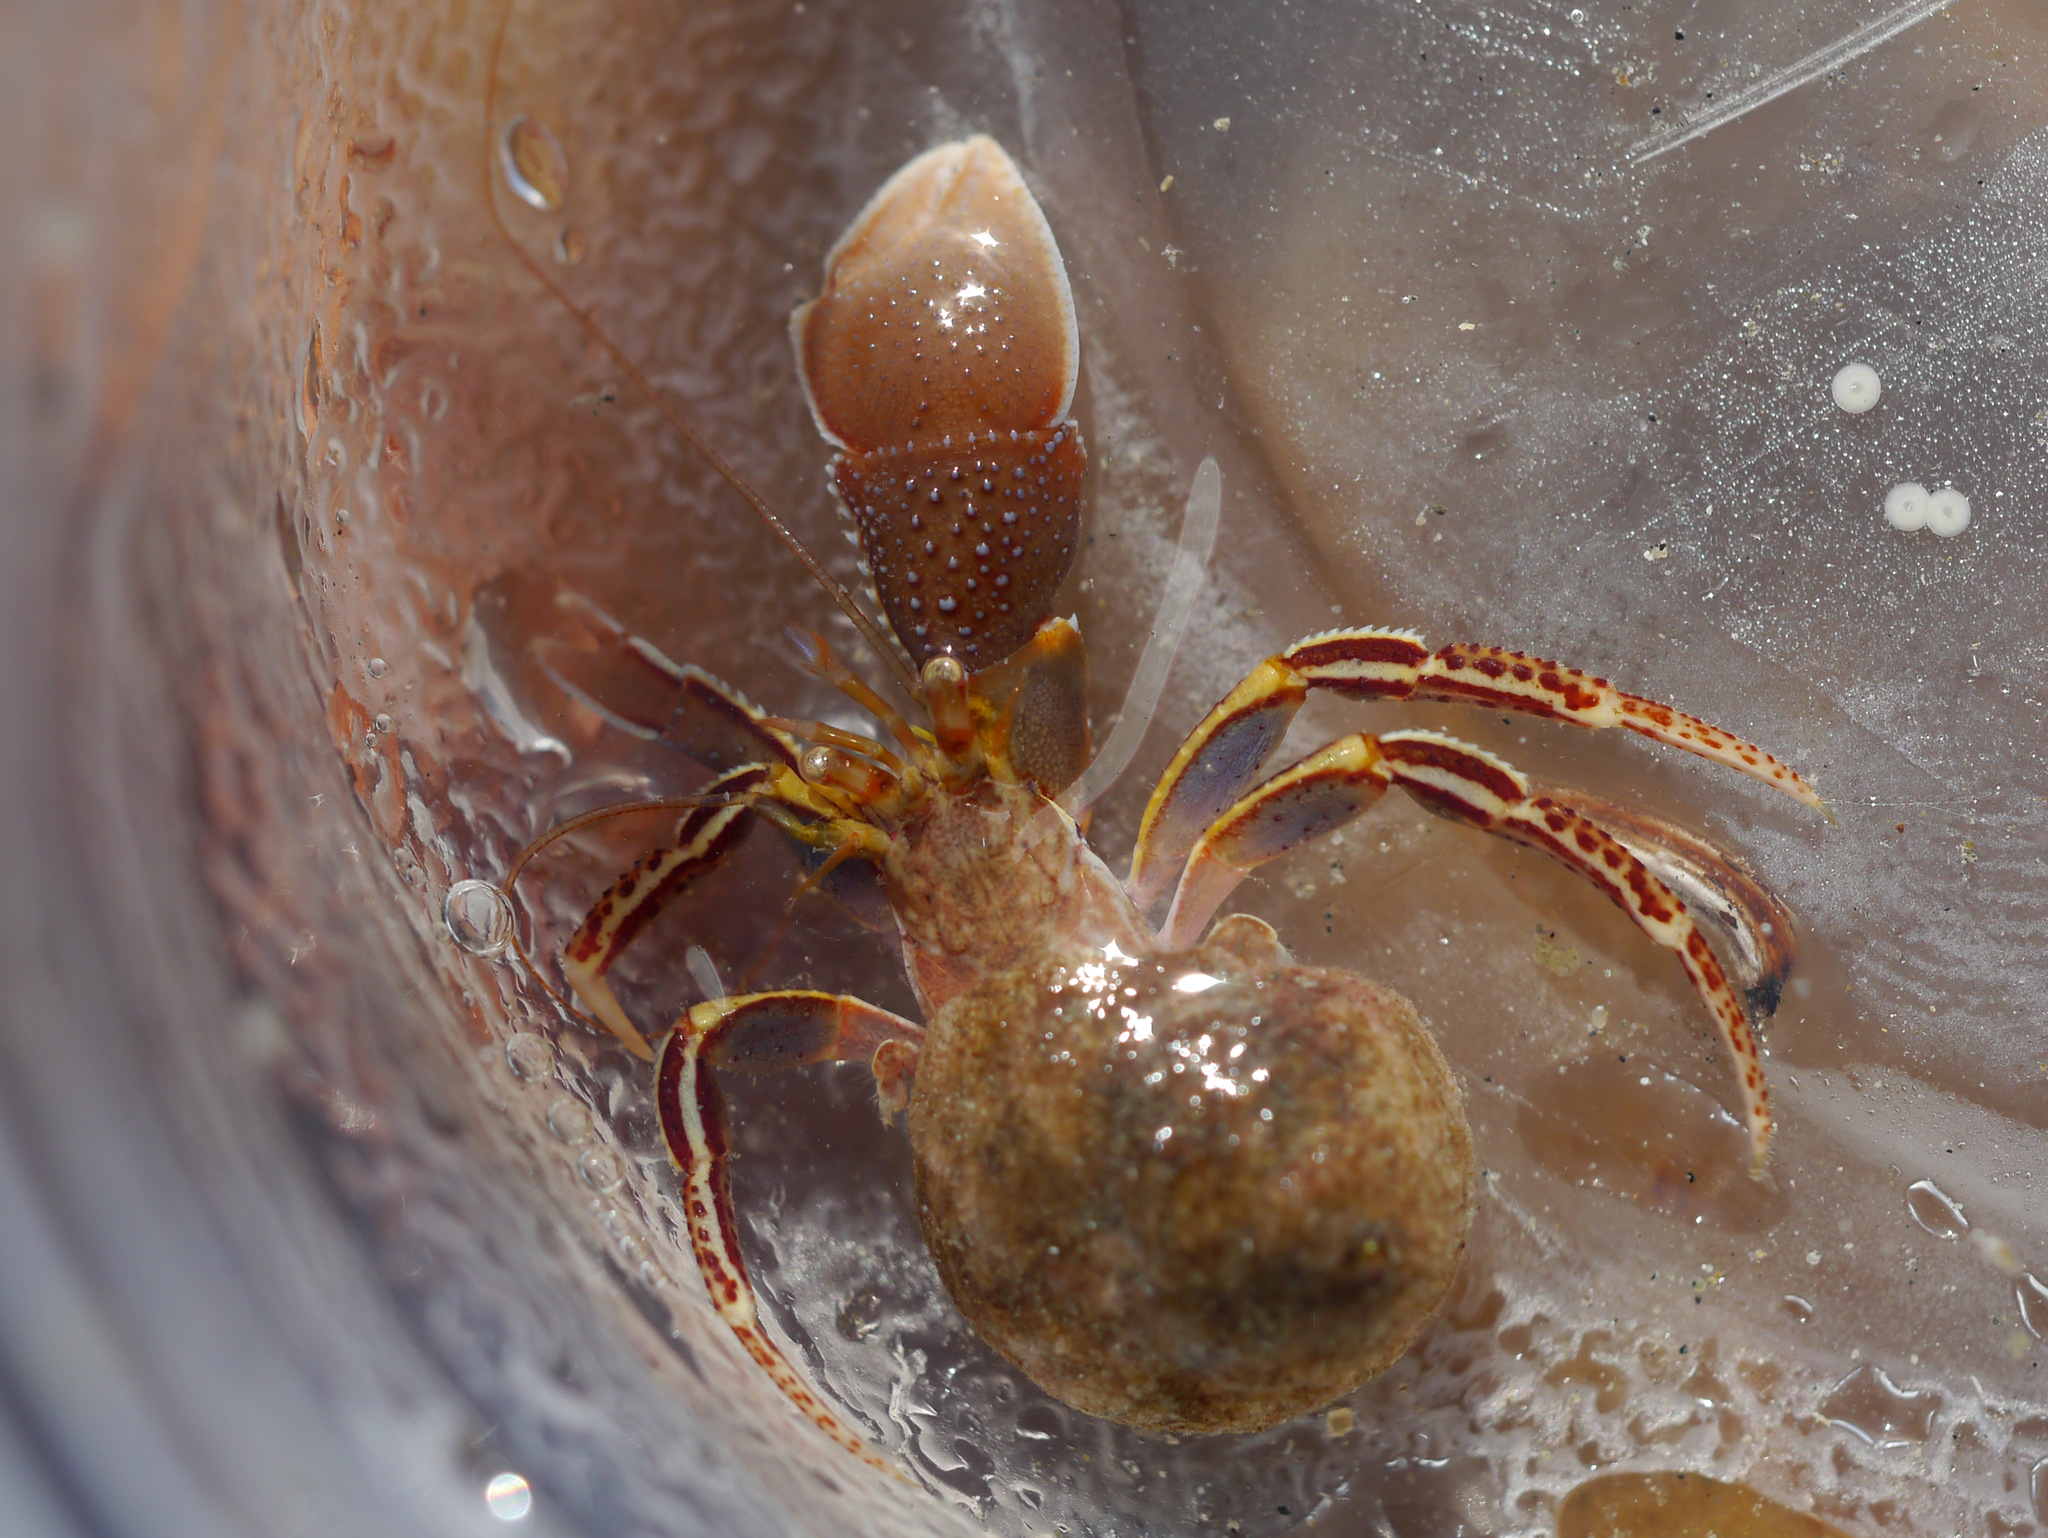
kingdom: Animalia
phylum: Arthropoda
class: Malacostraca
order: Decapoda
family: Paguridae
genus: Elassochirus
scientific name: Elassochirus tenuimanus
